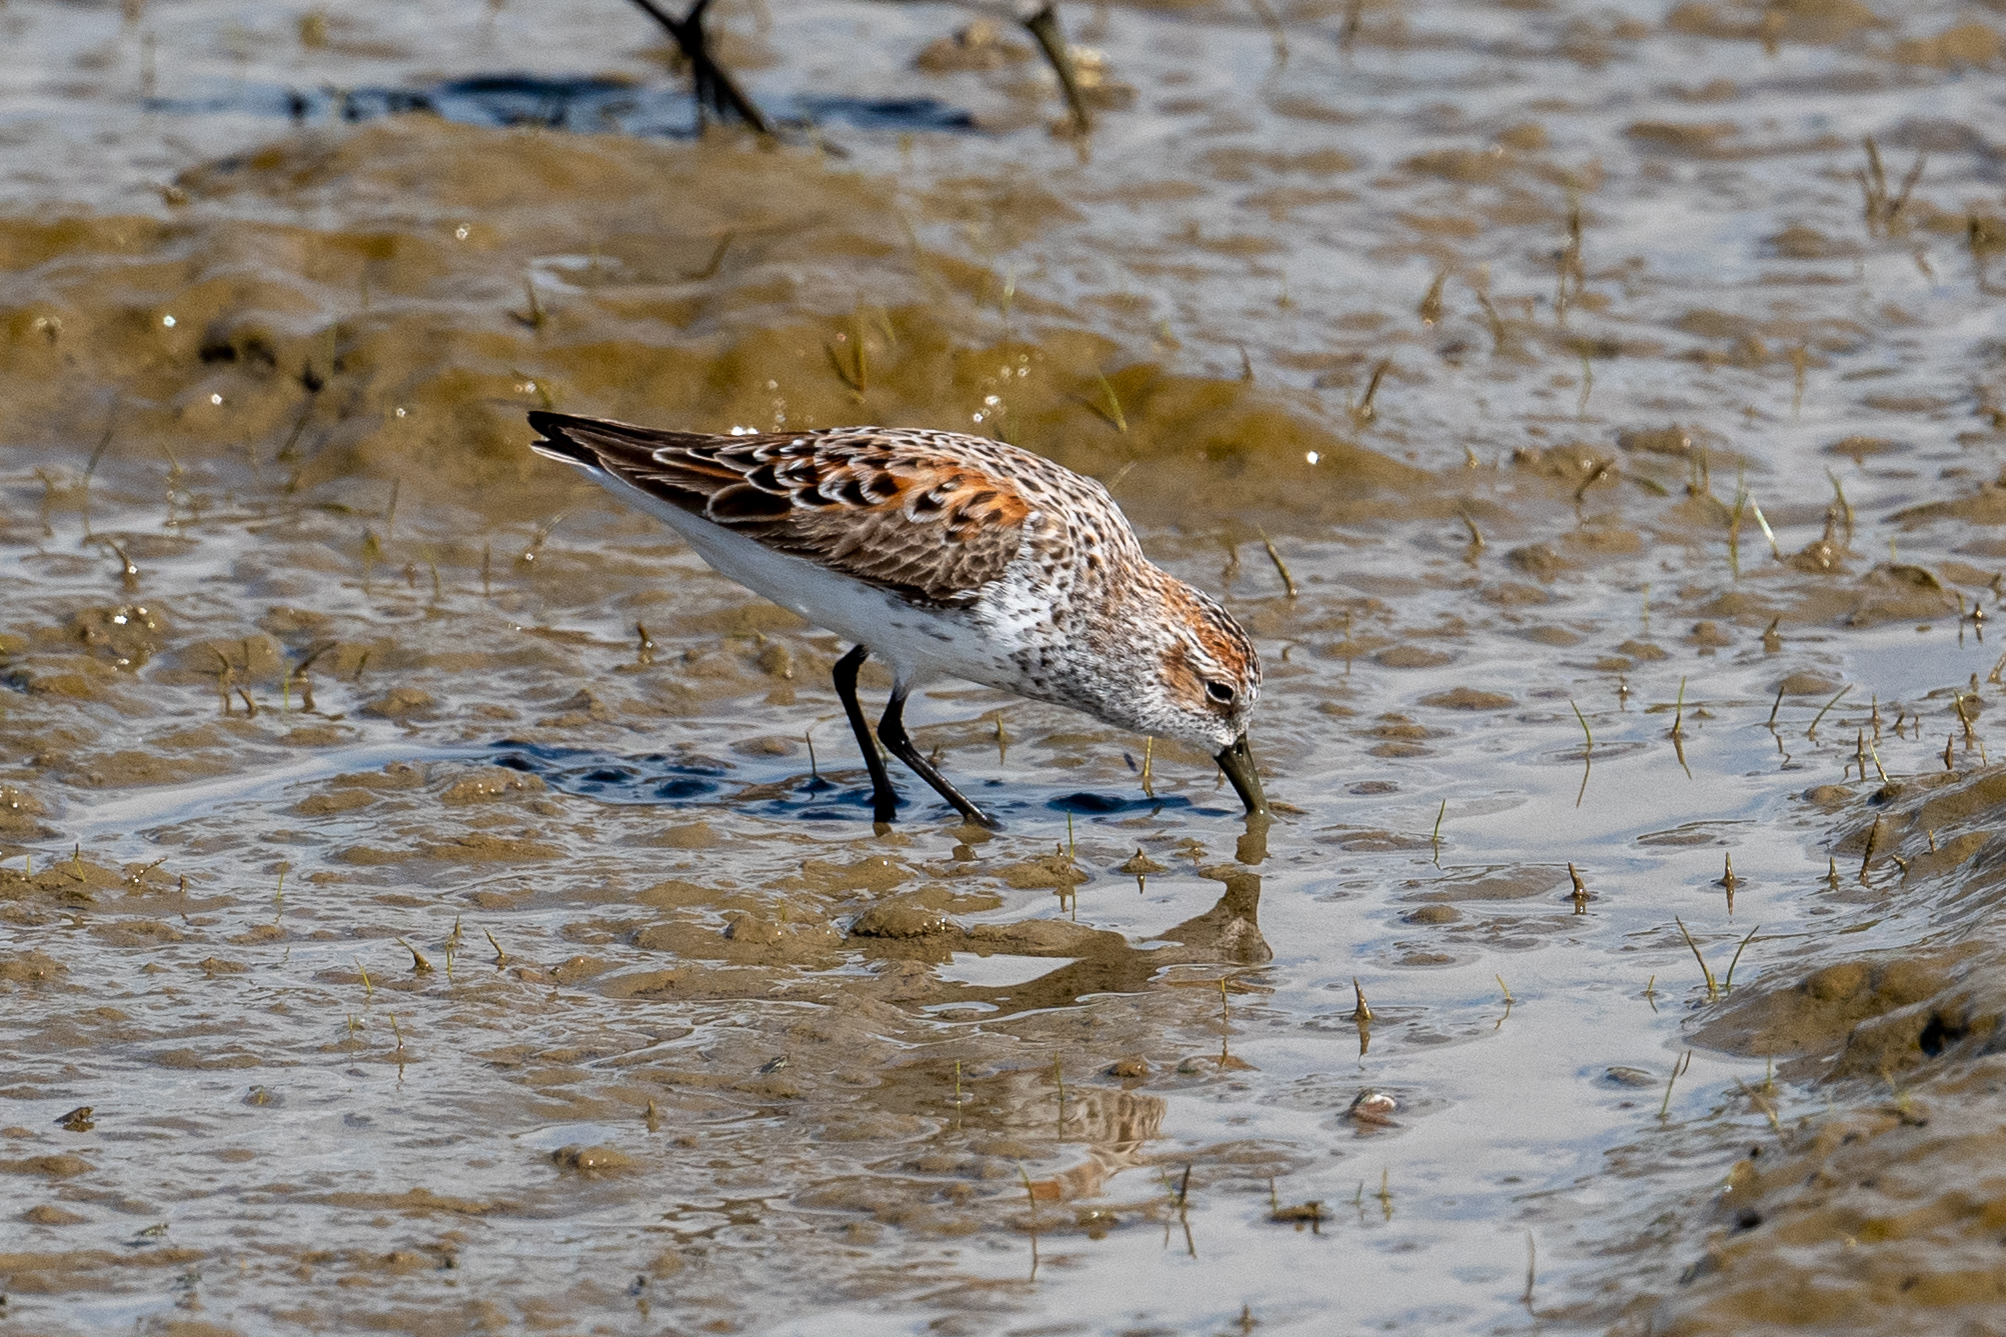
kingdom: Animalia
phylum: Chordata
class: Aves
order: Charadriiformes
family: Scolopacidae
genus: Calidris
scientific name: Calidris mauri
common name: Western sandpiper
